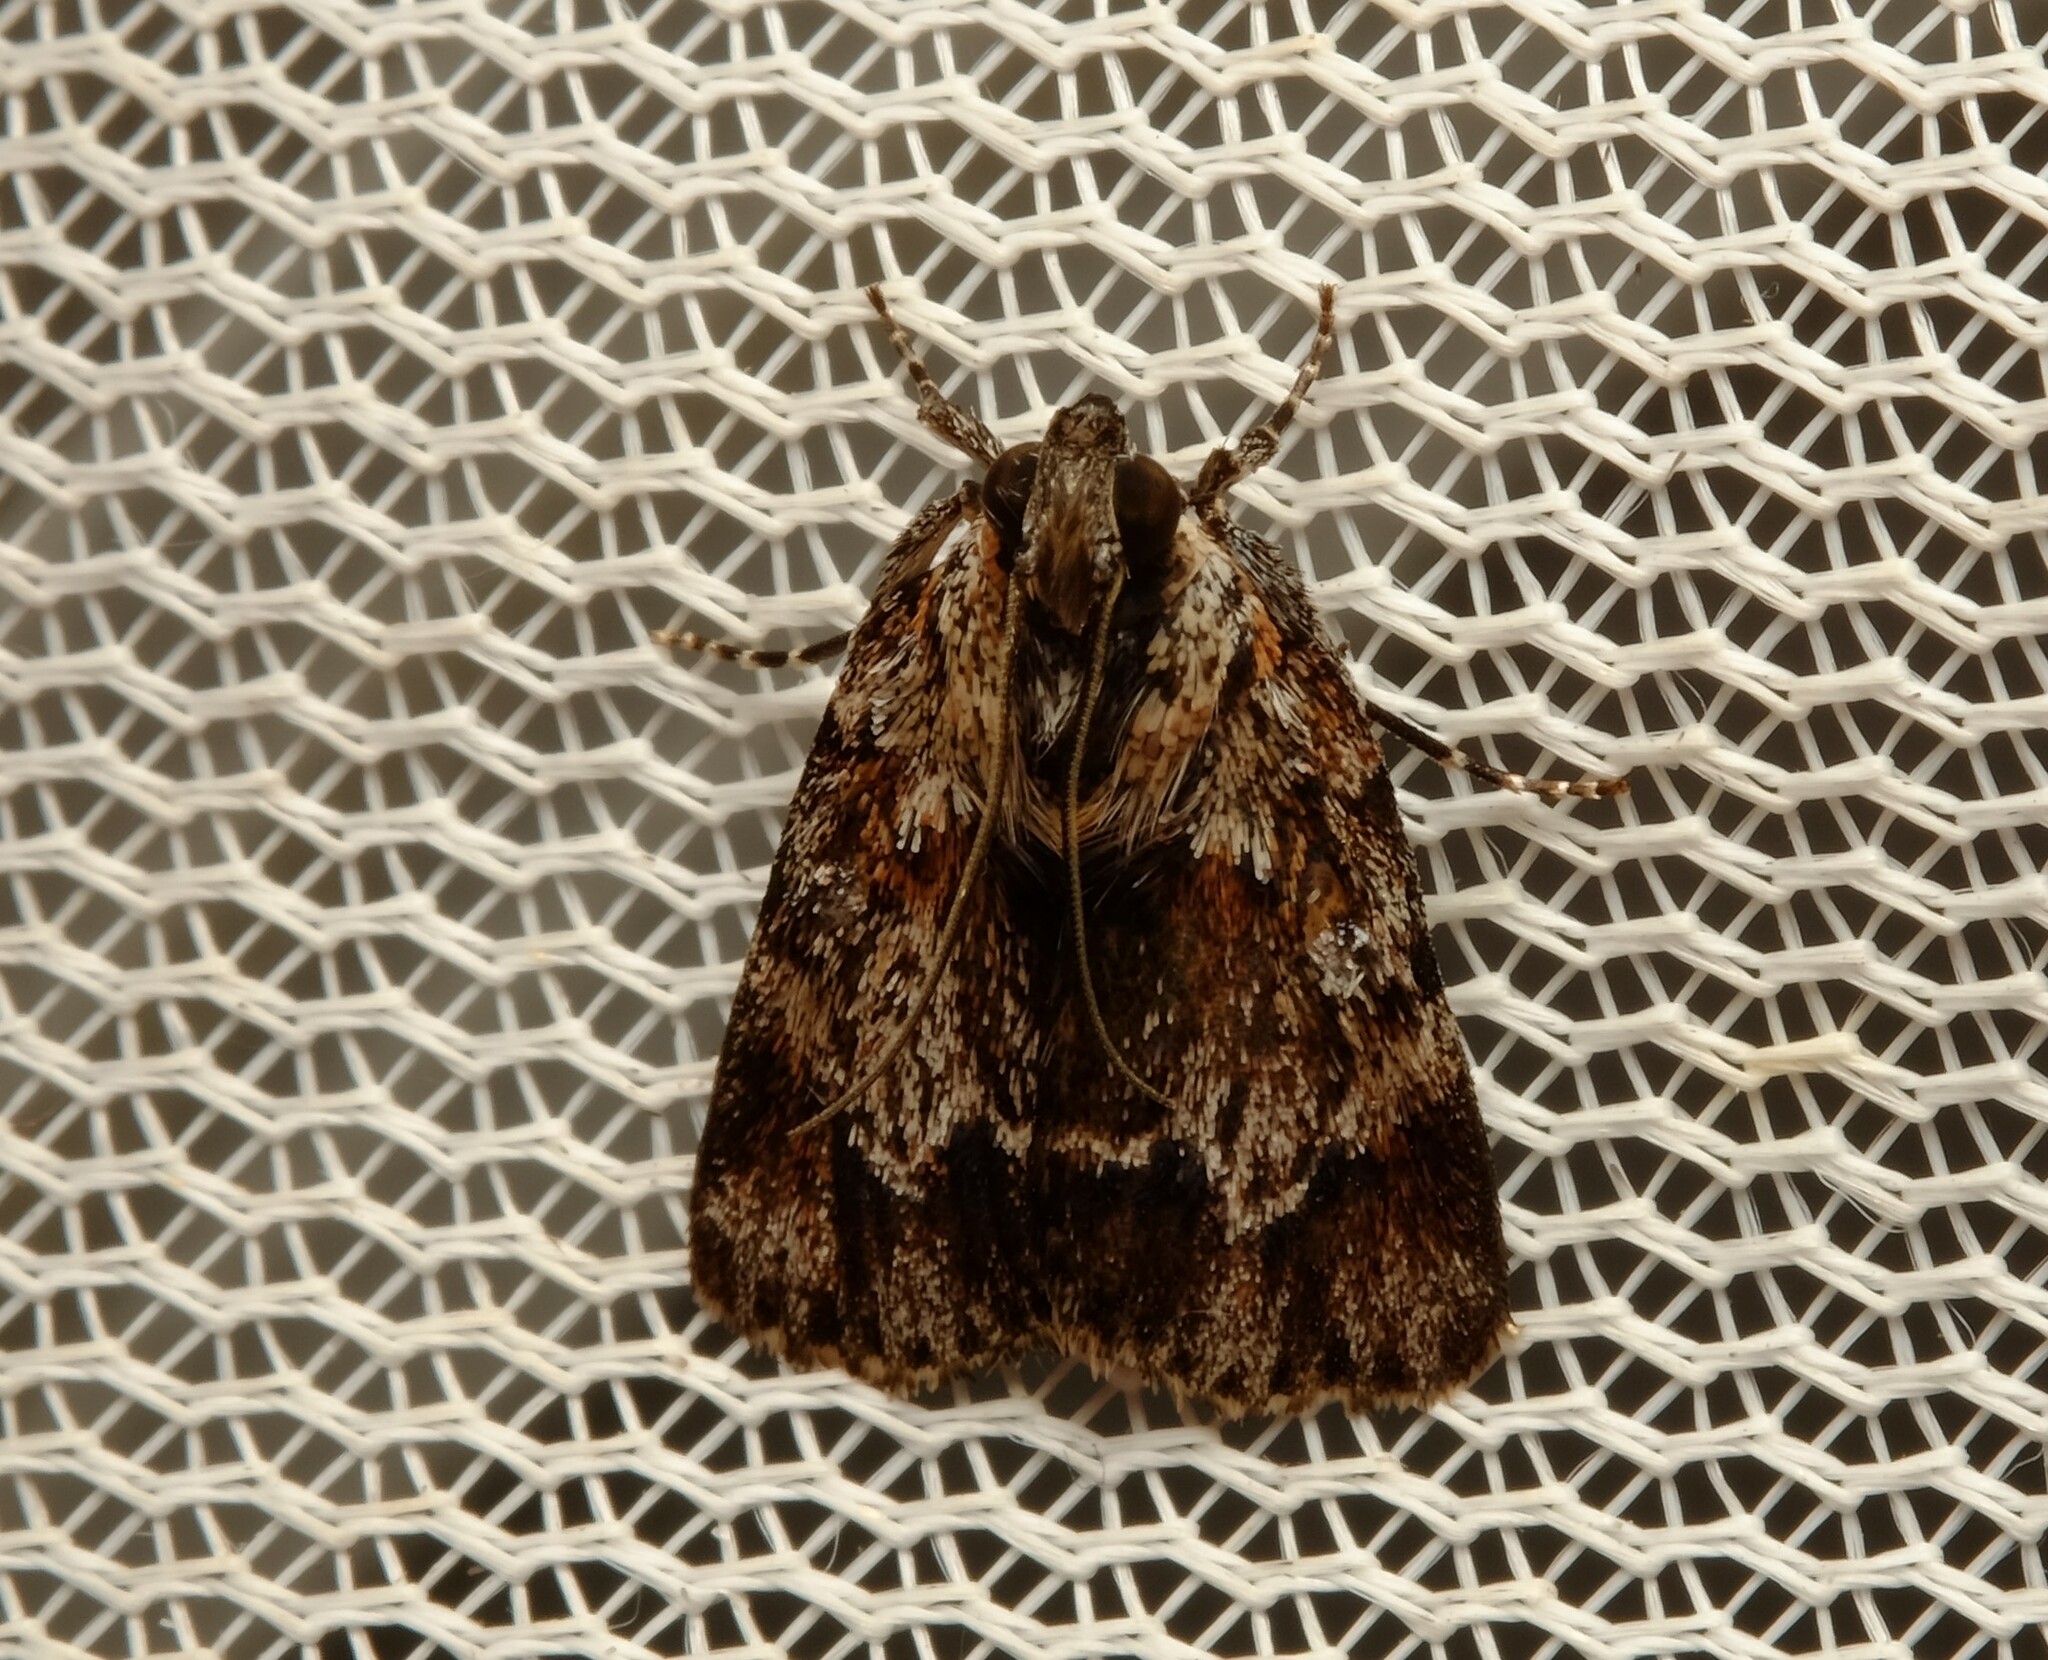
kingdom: Animalia
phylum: Arthropoda
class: Insecta
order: Lepidoptera
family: Pyralidae
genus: Spectrotrota
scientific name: Spectrotrota fimbrialis
